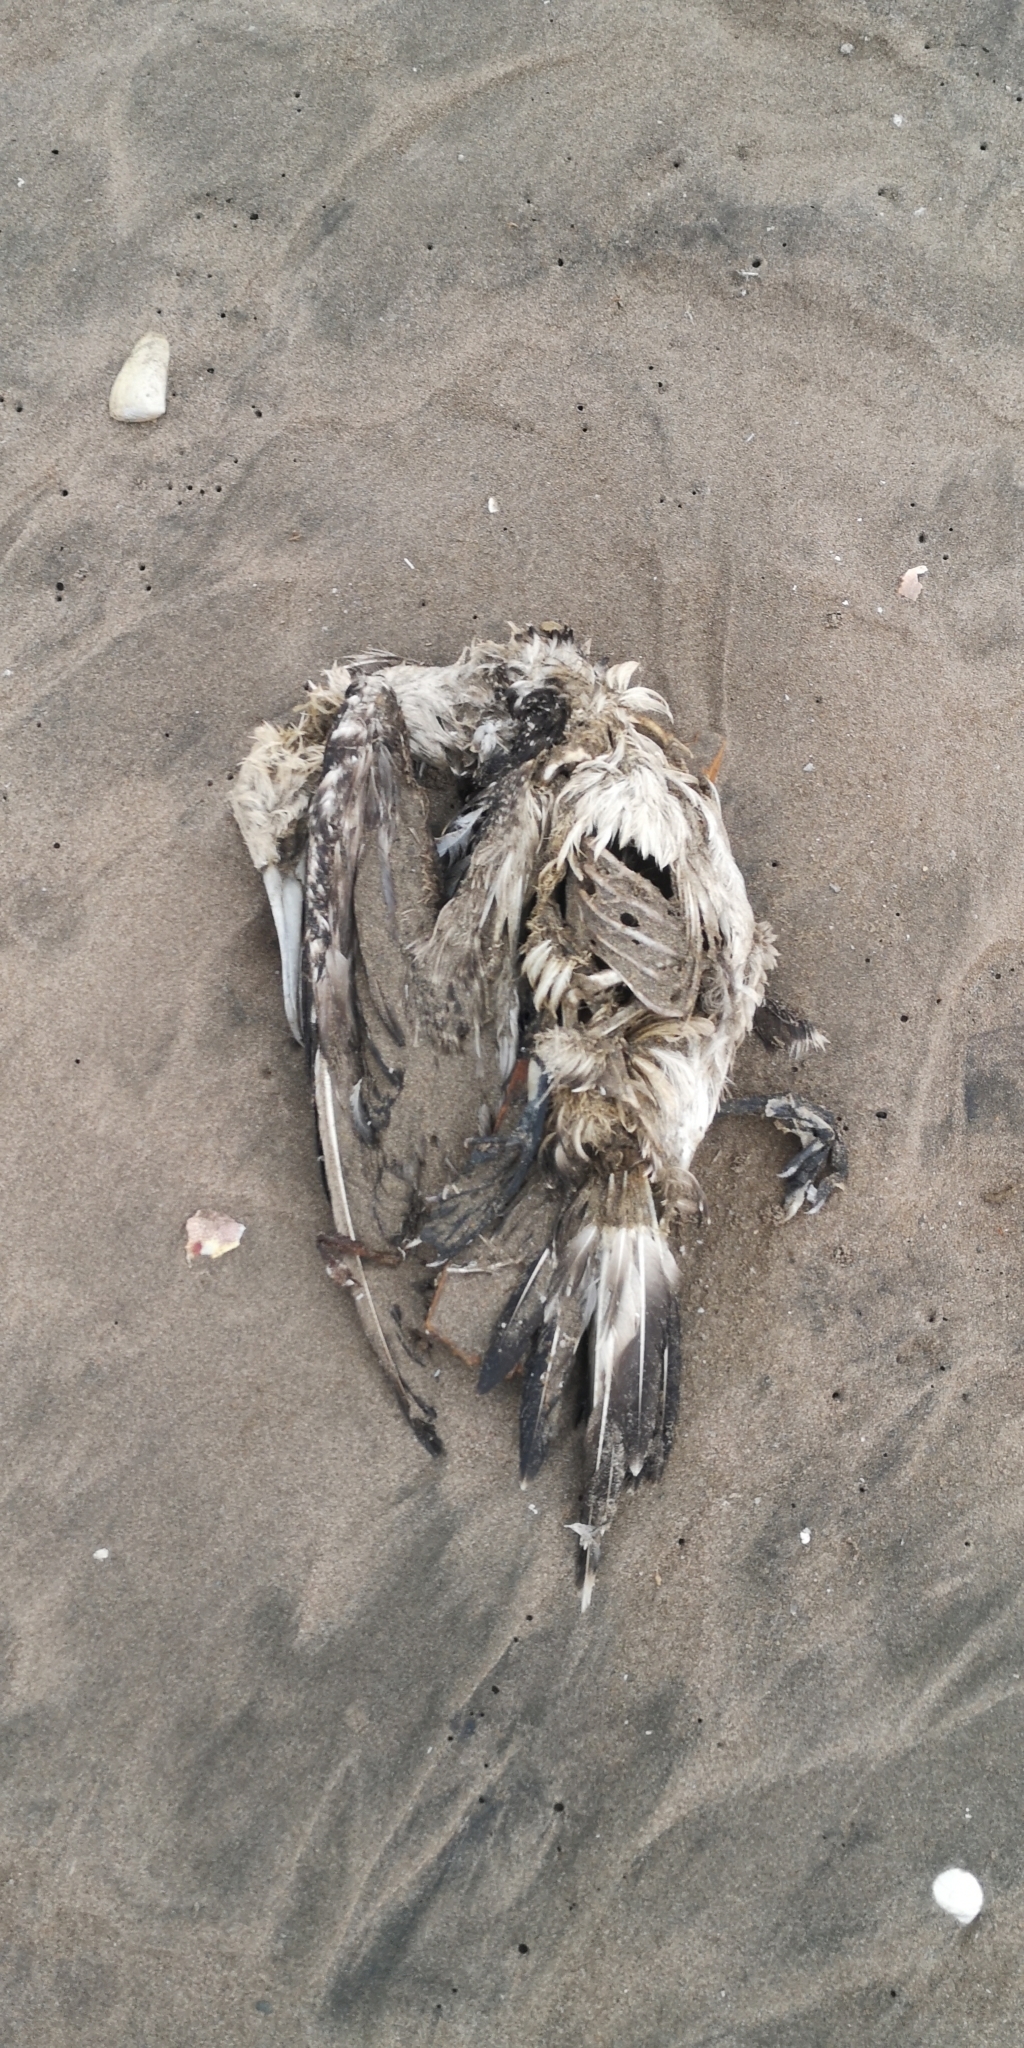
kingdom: Animalia
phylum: Chordata
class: Aves
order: Suliformes
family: Sulidae
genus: Sula
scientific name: Sula variegata
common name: Peruvian booby
